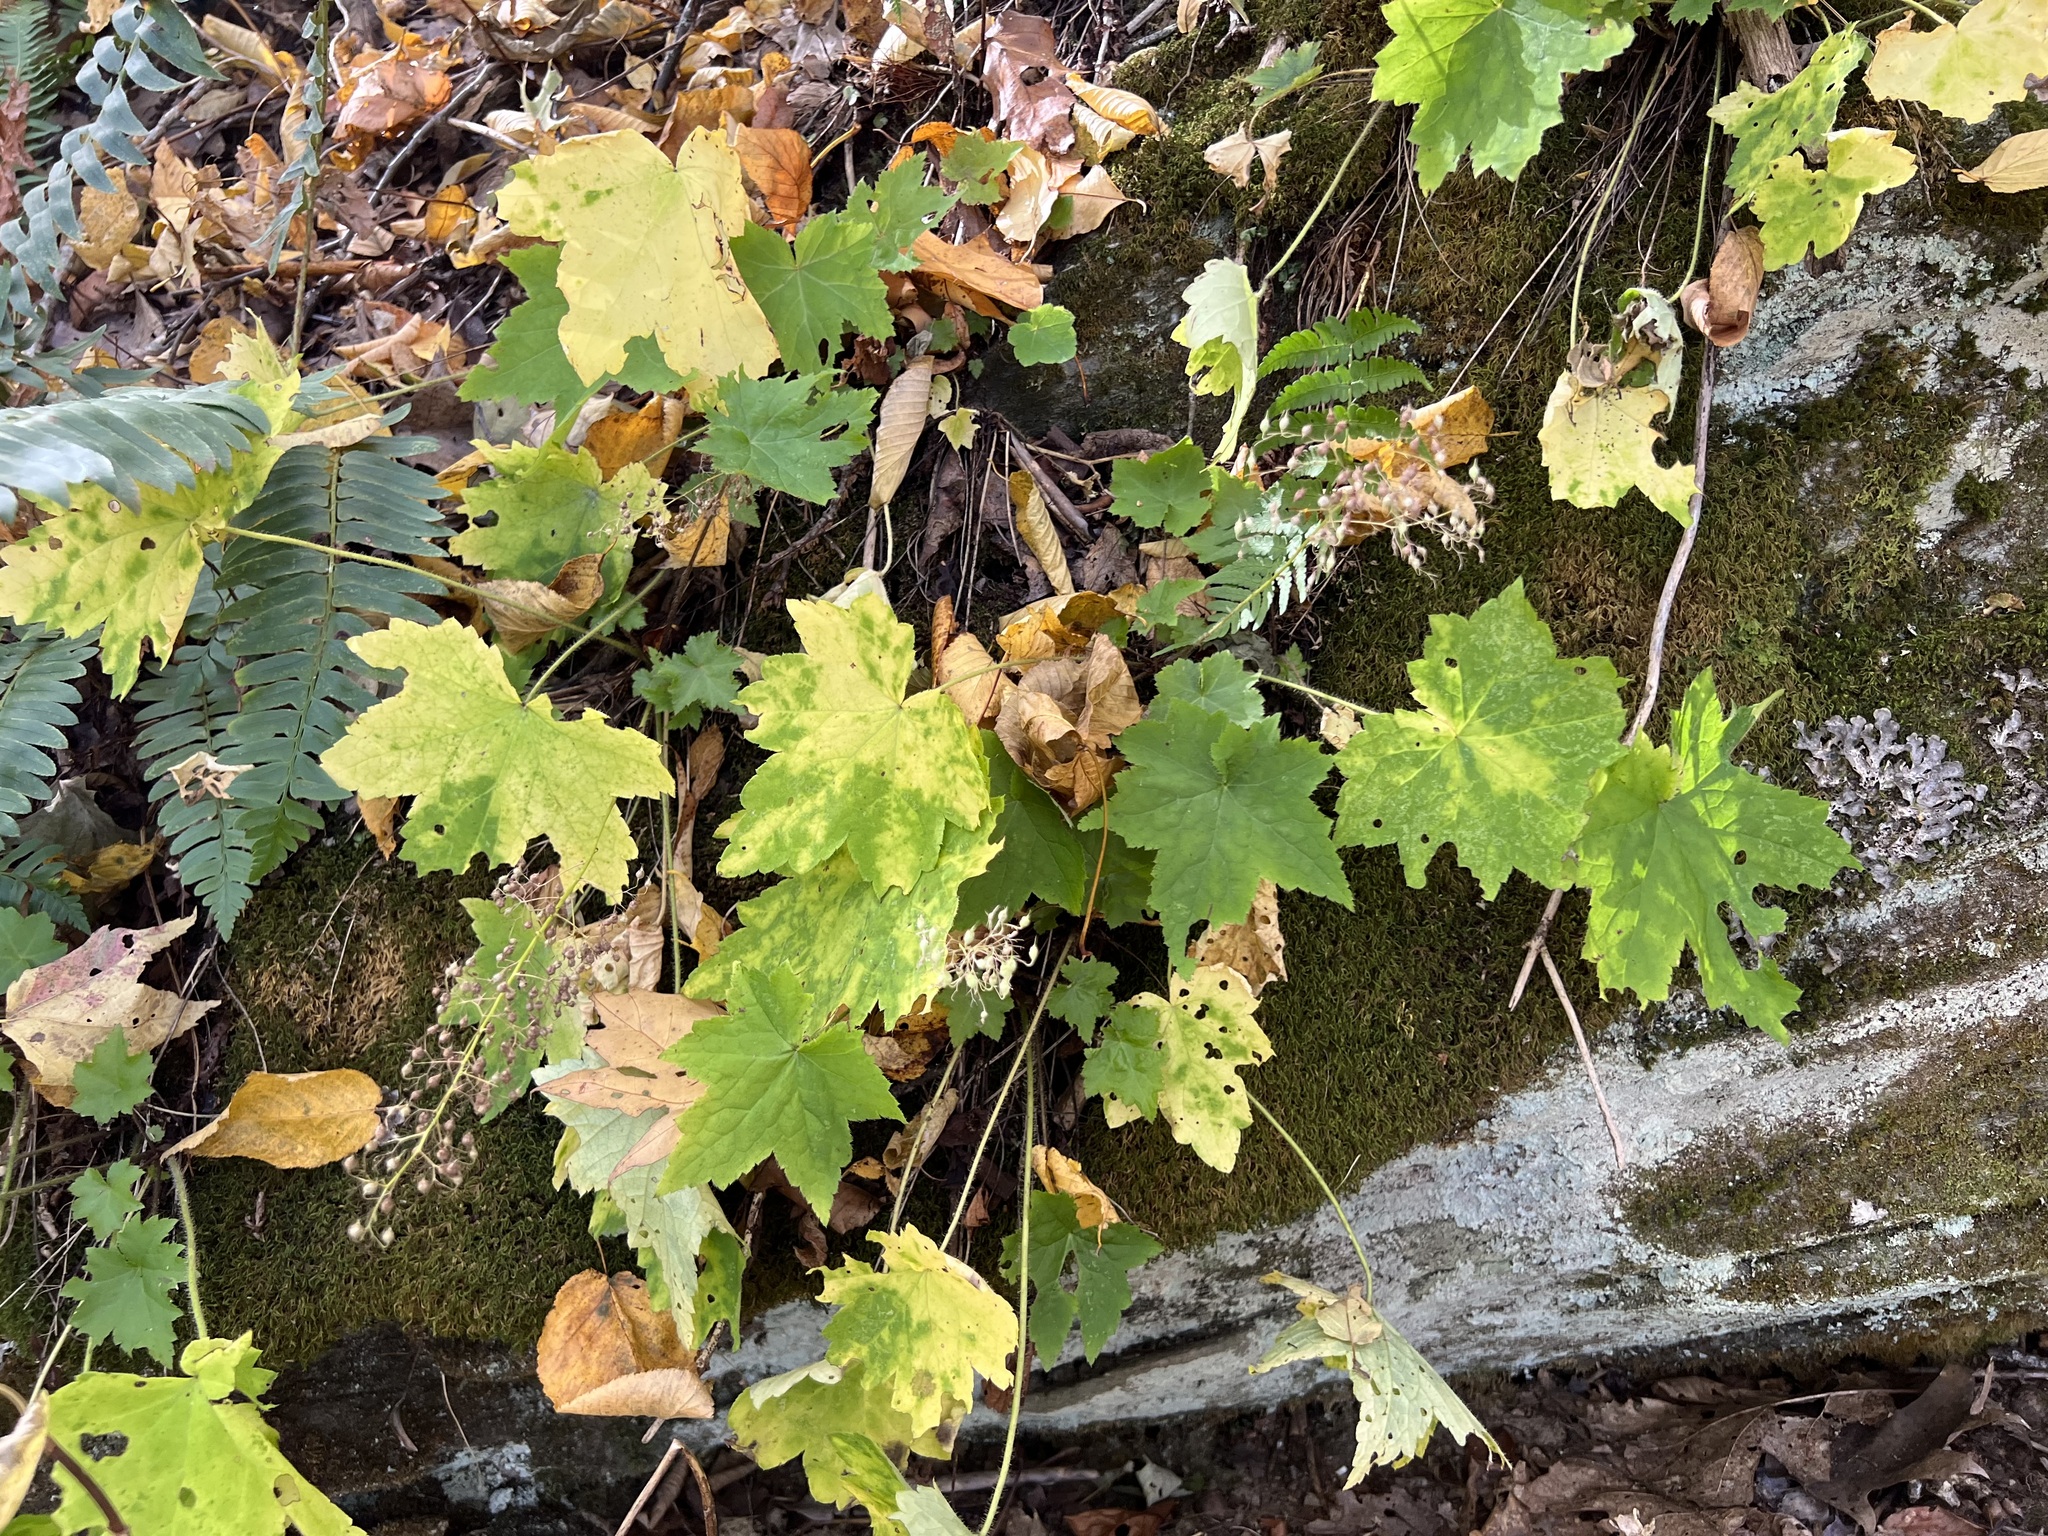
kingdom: Plantae
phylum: Tracheophyta
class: Magnoliopsida
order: Saxifragales
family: Saxifragaceae
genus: Heuchera
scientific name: Heuchera villosa
